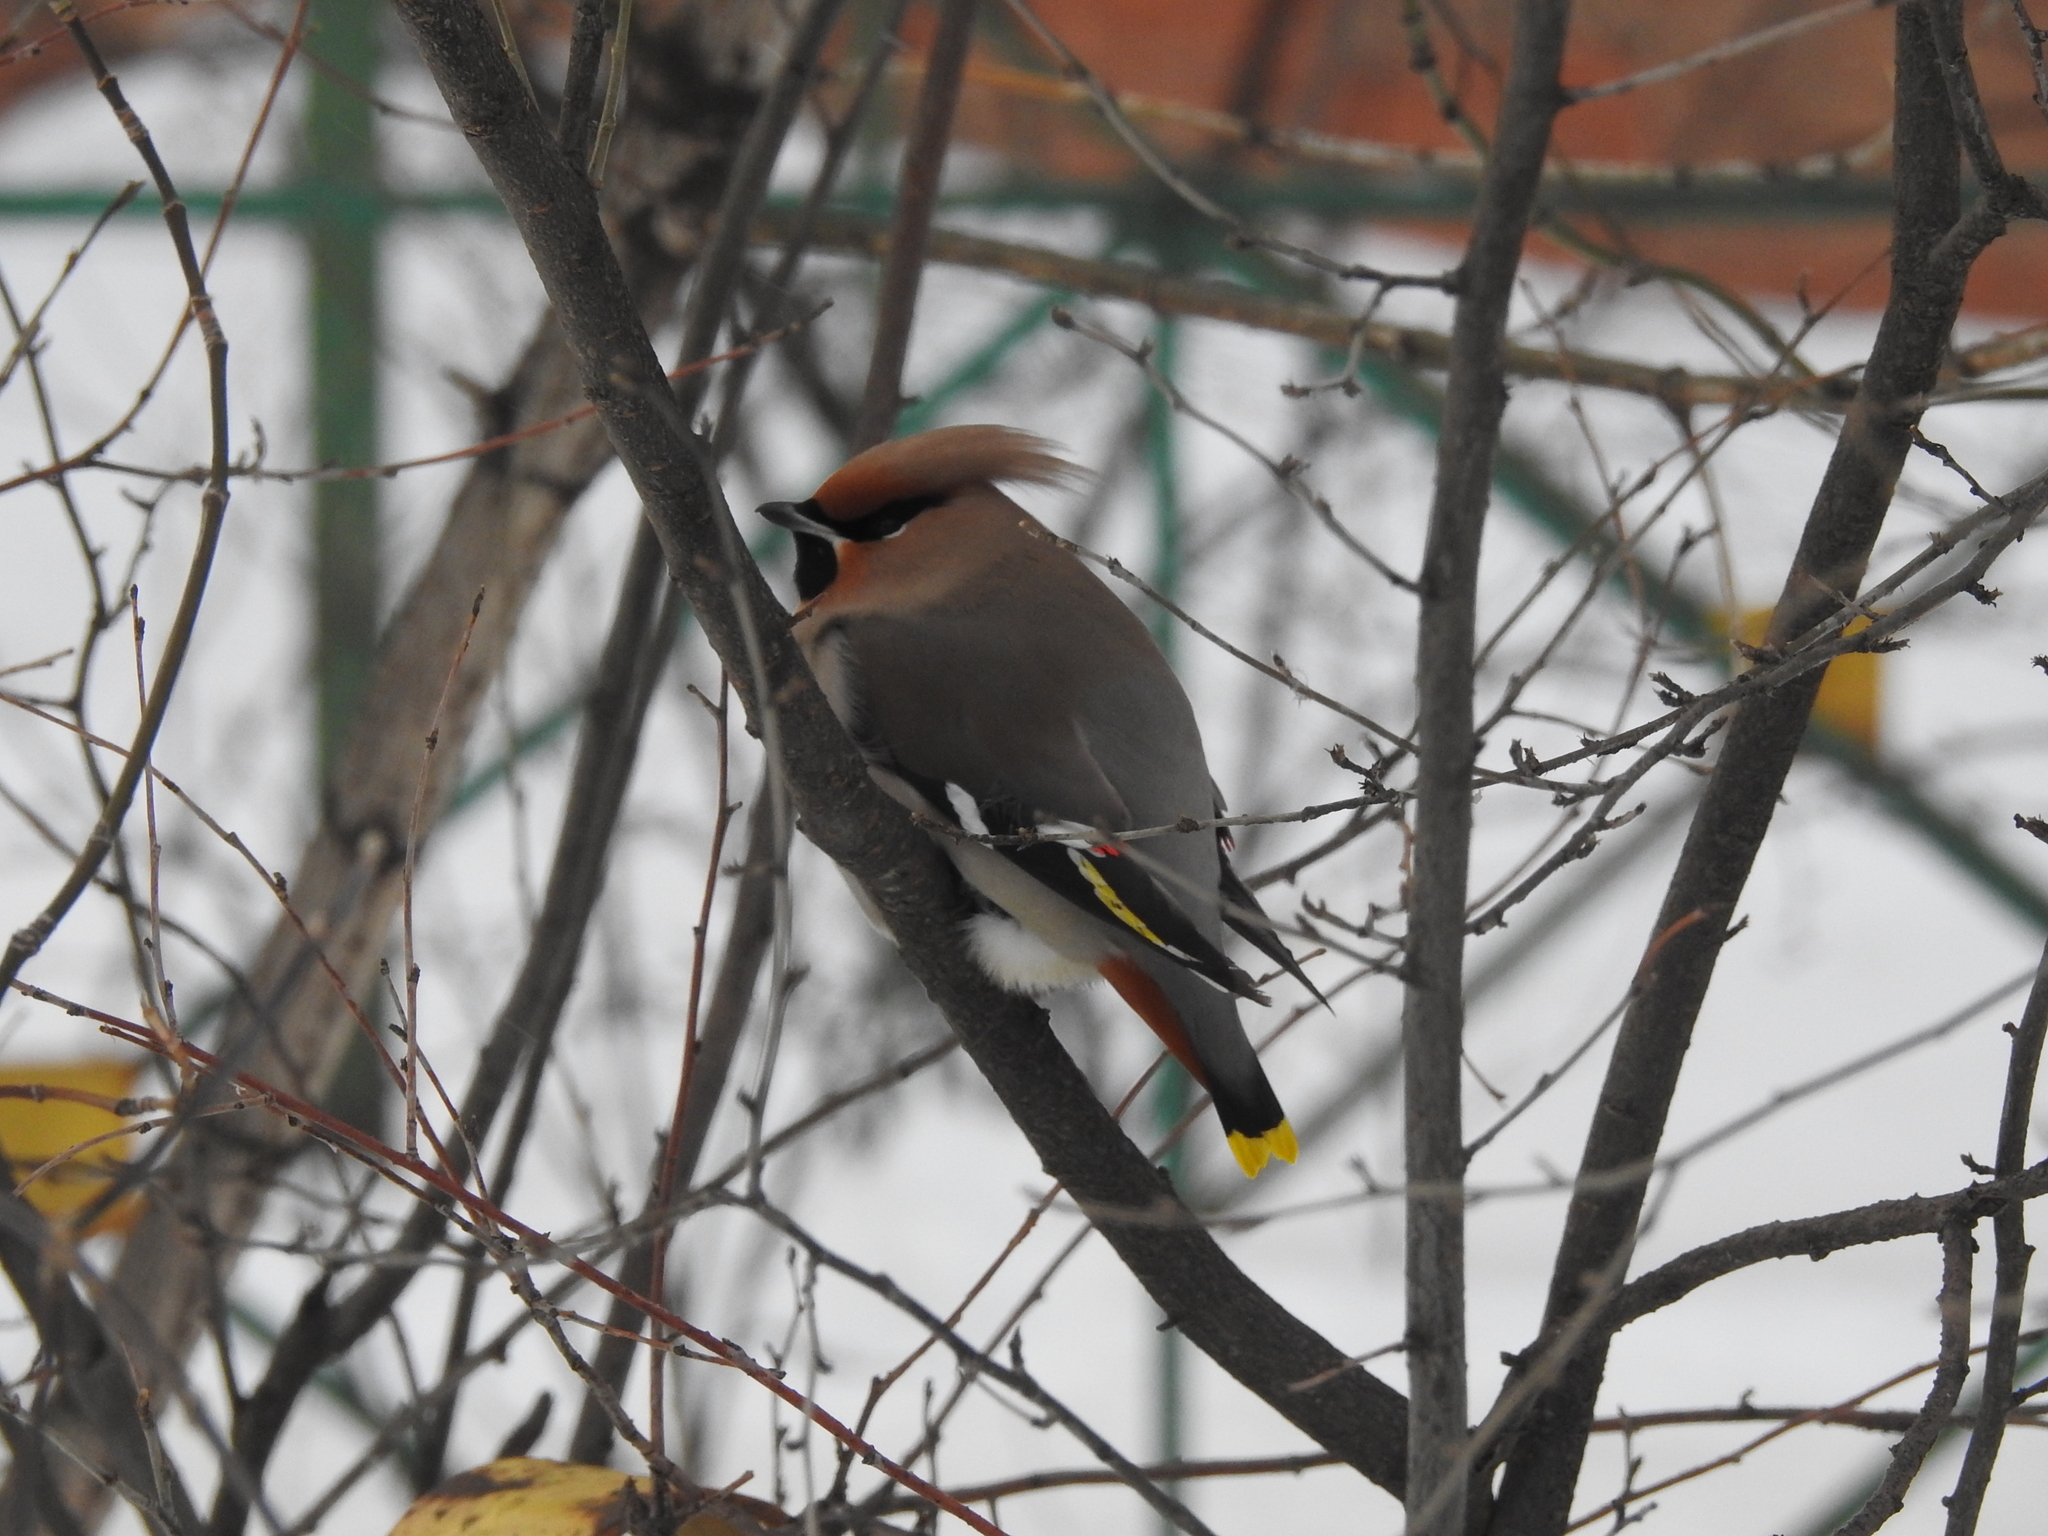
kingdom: Animalia
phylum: Chordata
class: Aves
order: Passeriformes
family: Bombycillidae
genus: Bombycilla
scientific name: Bombycilla garrulus
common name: Bohemian waxwing
